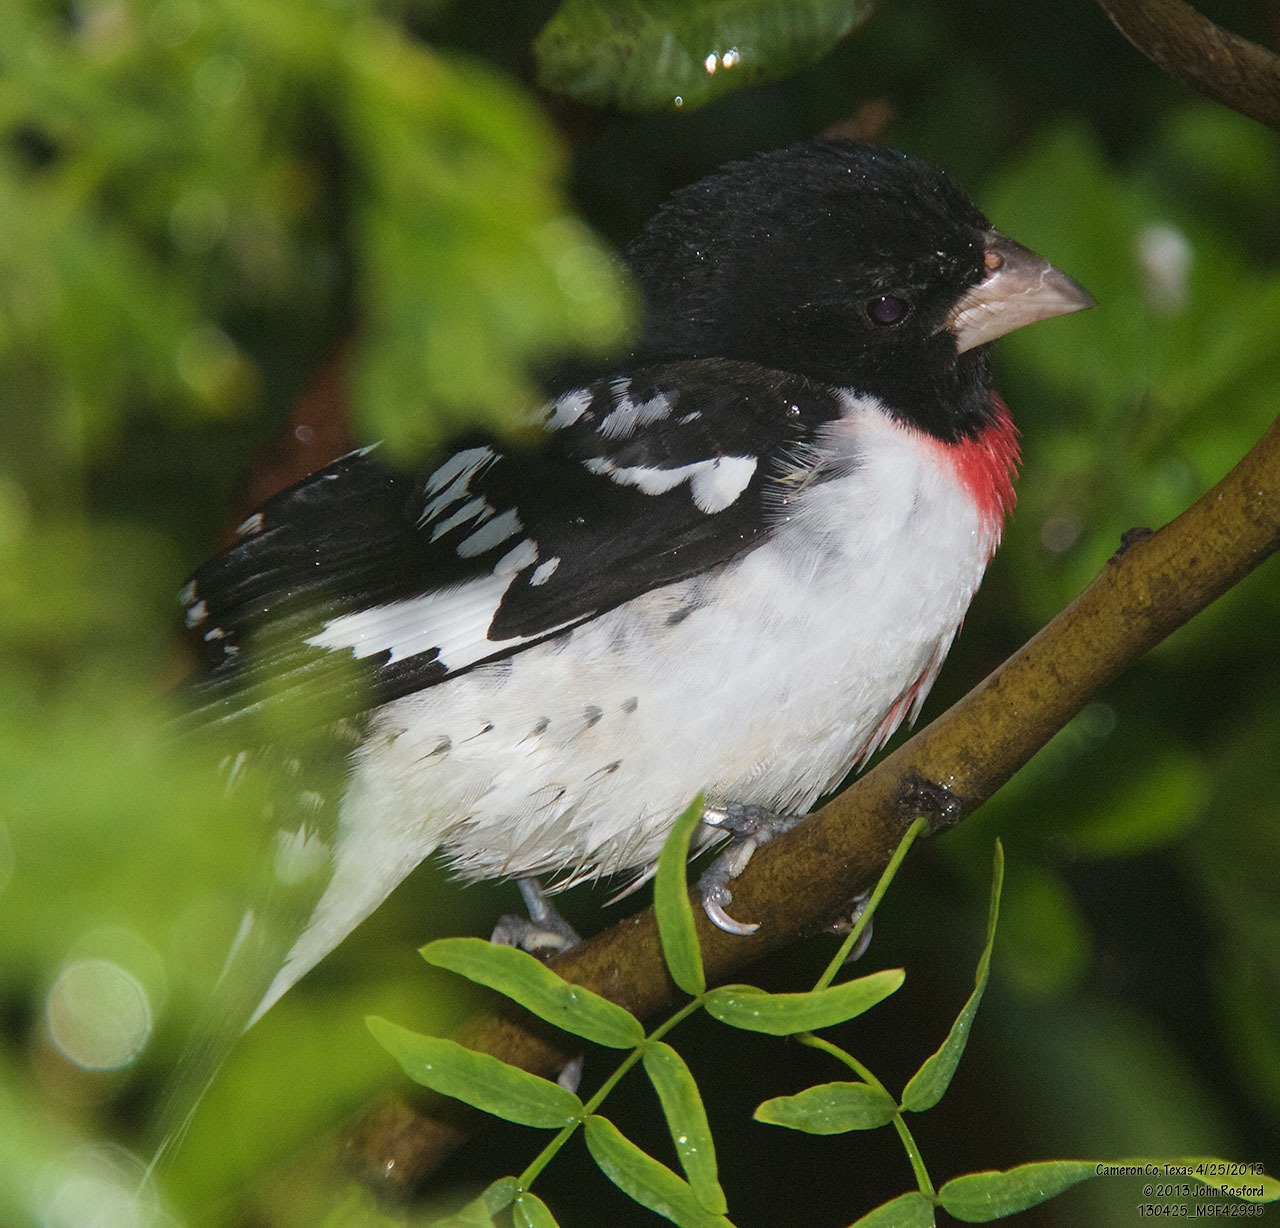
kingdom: Animalia
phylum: Chordata
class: Aves
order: Passeriformes
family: Cardinalidae
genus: Pheucticus
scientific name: Pheucticus ludovicianus
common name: Rose-breasted grosbeak
